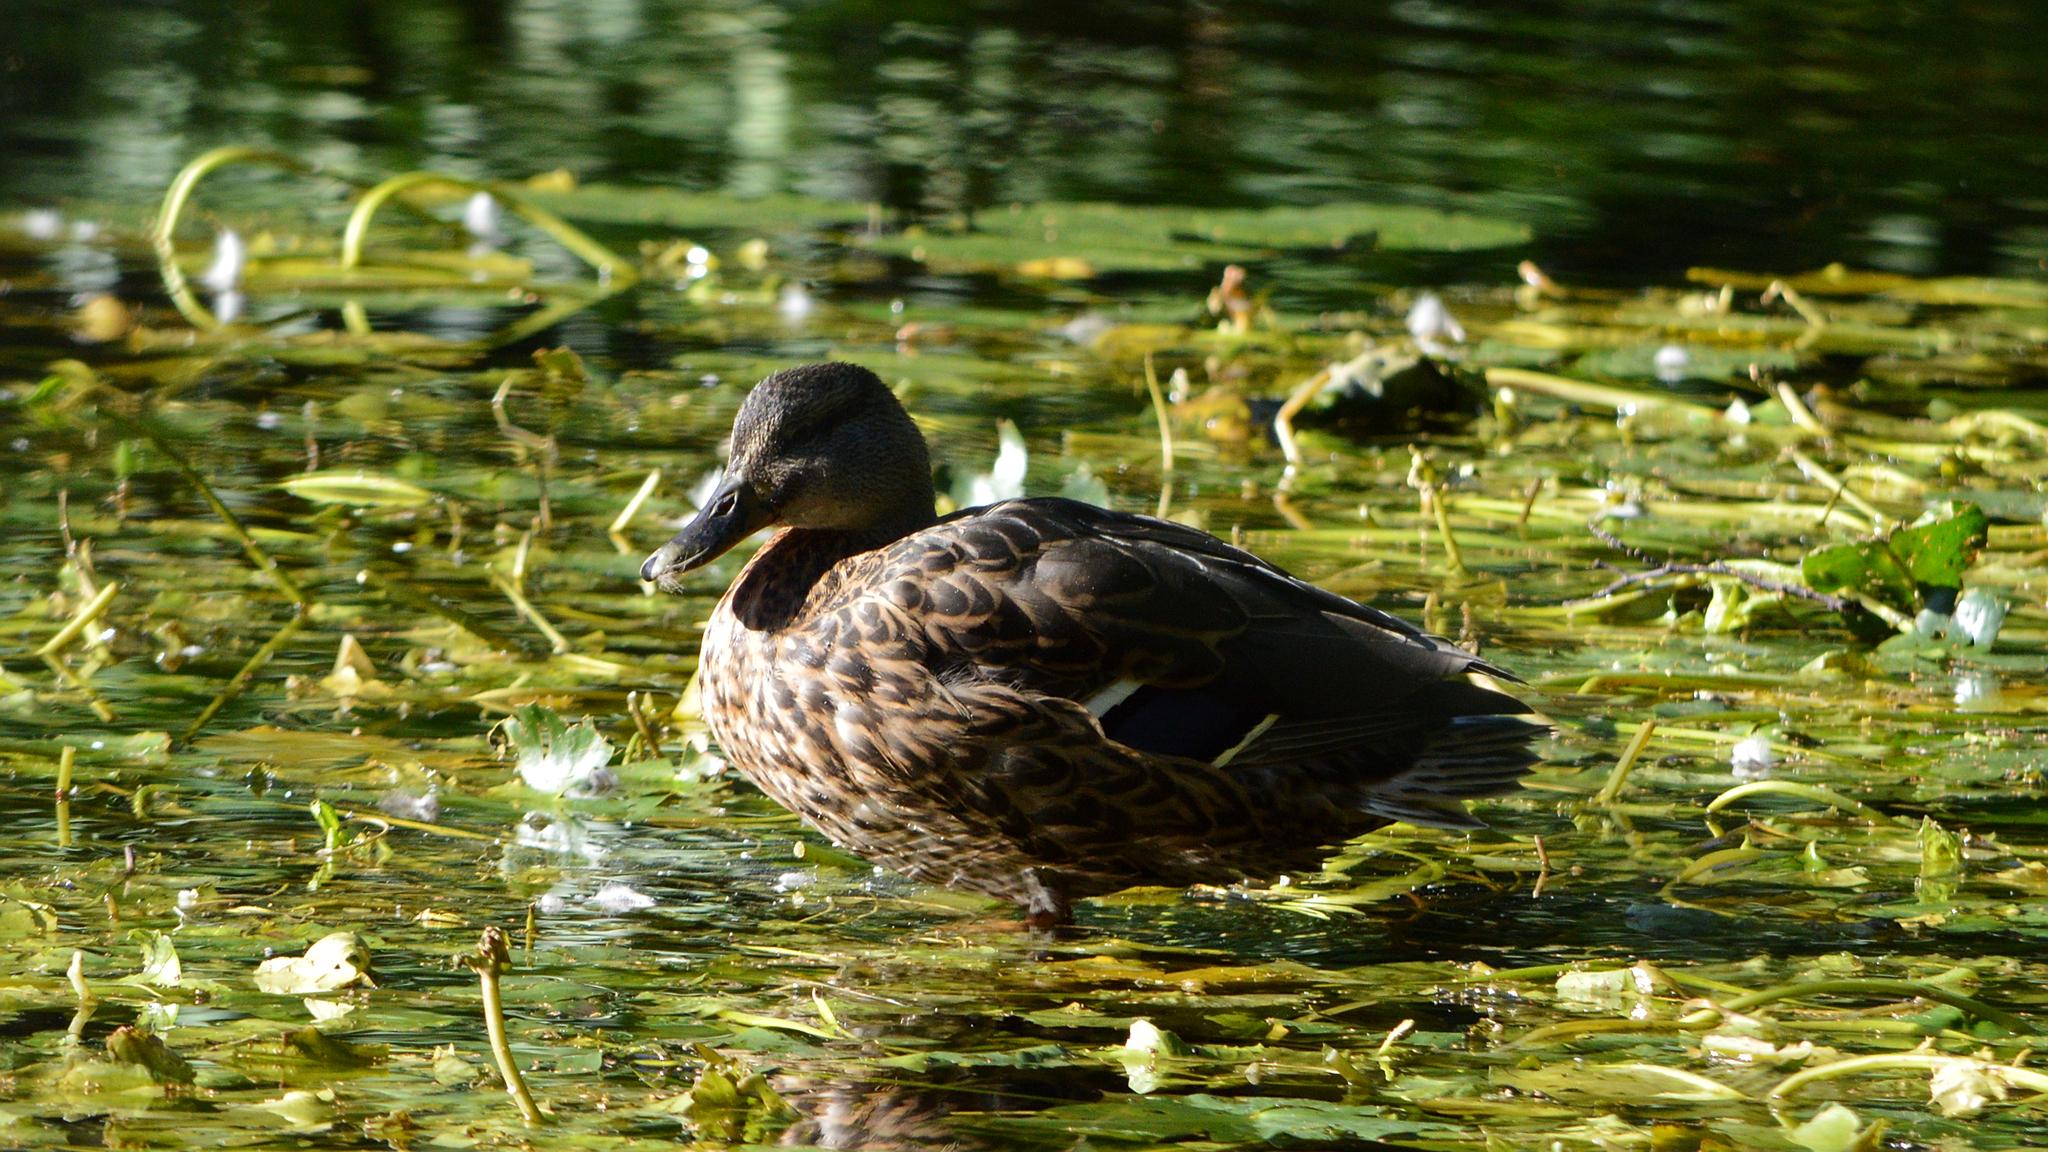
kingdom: Animalia
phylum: Chordata
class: Aves
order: Anseriformes
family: Anatidae
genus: Anas
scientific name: Anas platyrhynchos
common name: Mallard
